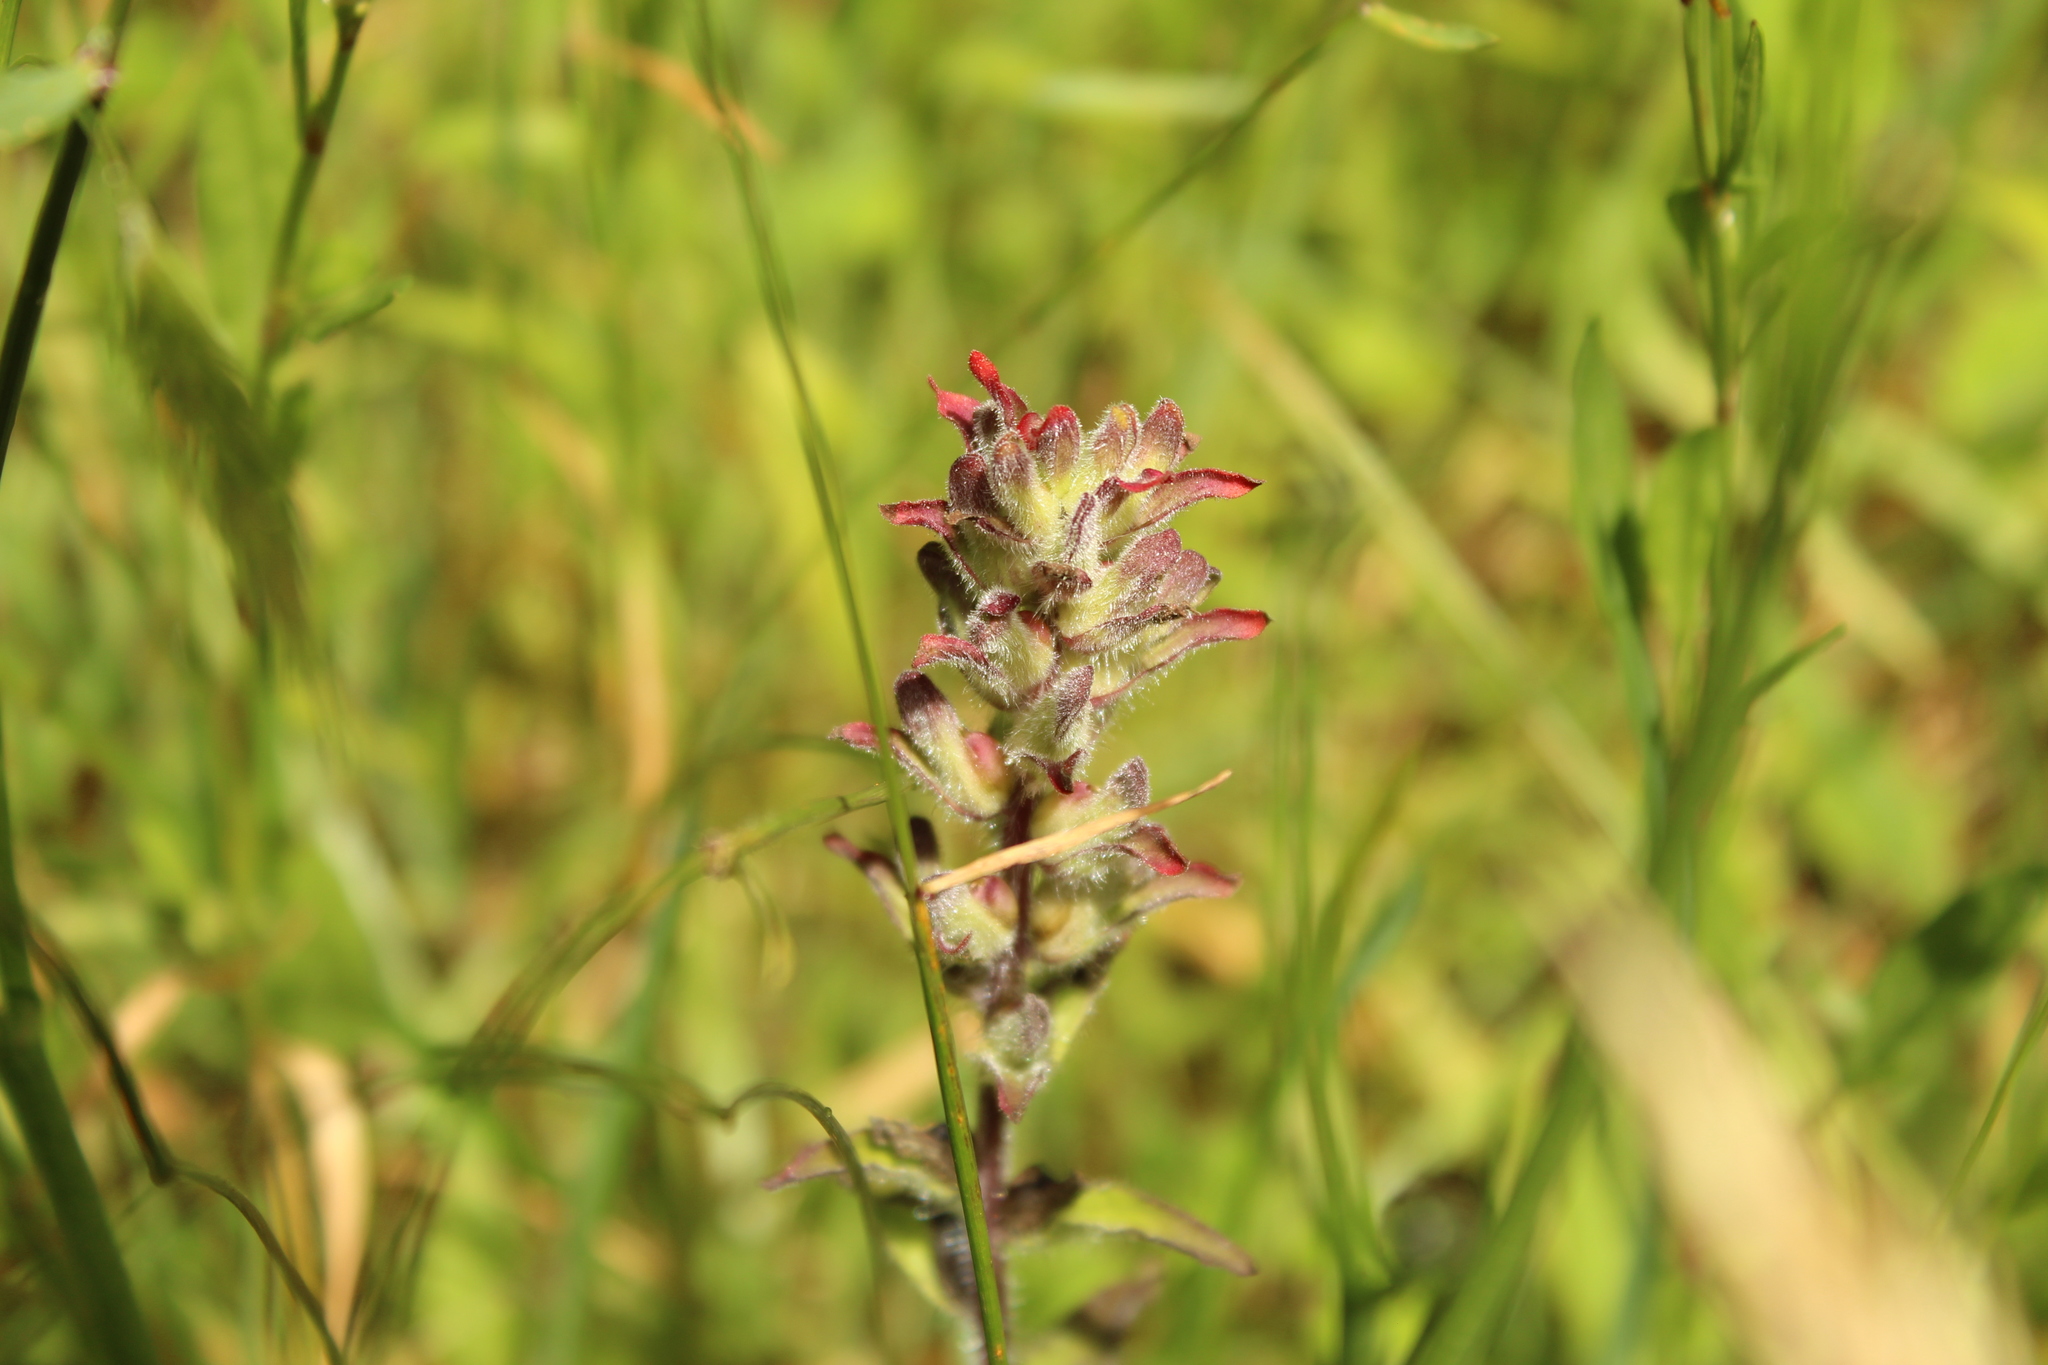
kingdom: Plantae
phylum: Tracheophyta
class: Magnoliopsida
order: Lamiales
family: Orobanchaceae
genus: Castilleja
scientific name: Castilleja arvensis
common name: Indian paintbrush
